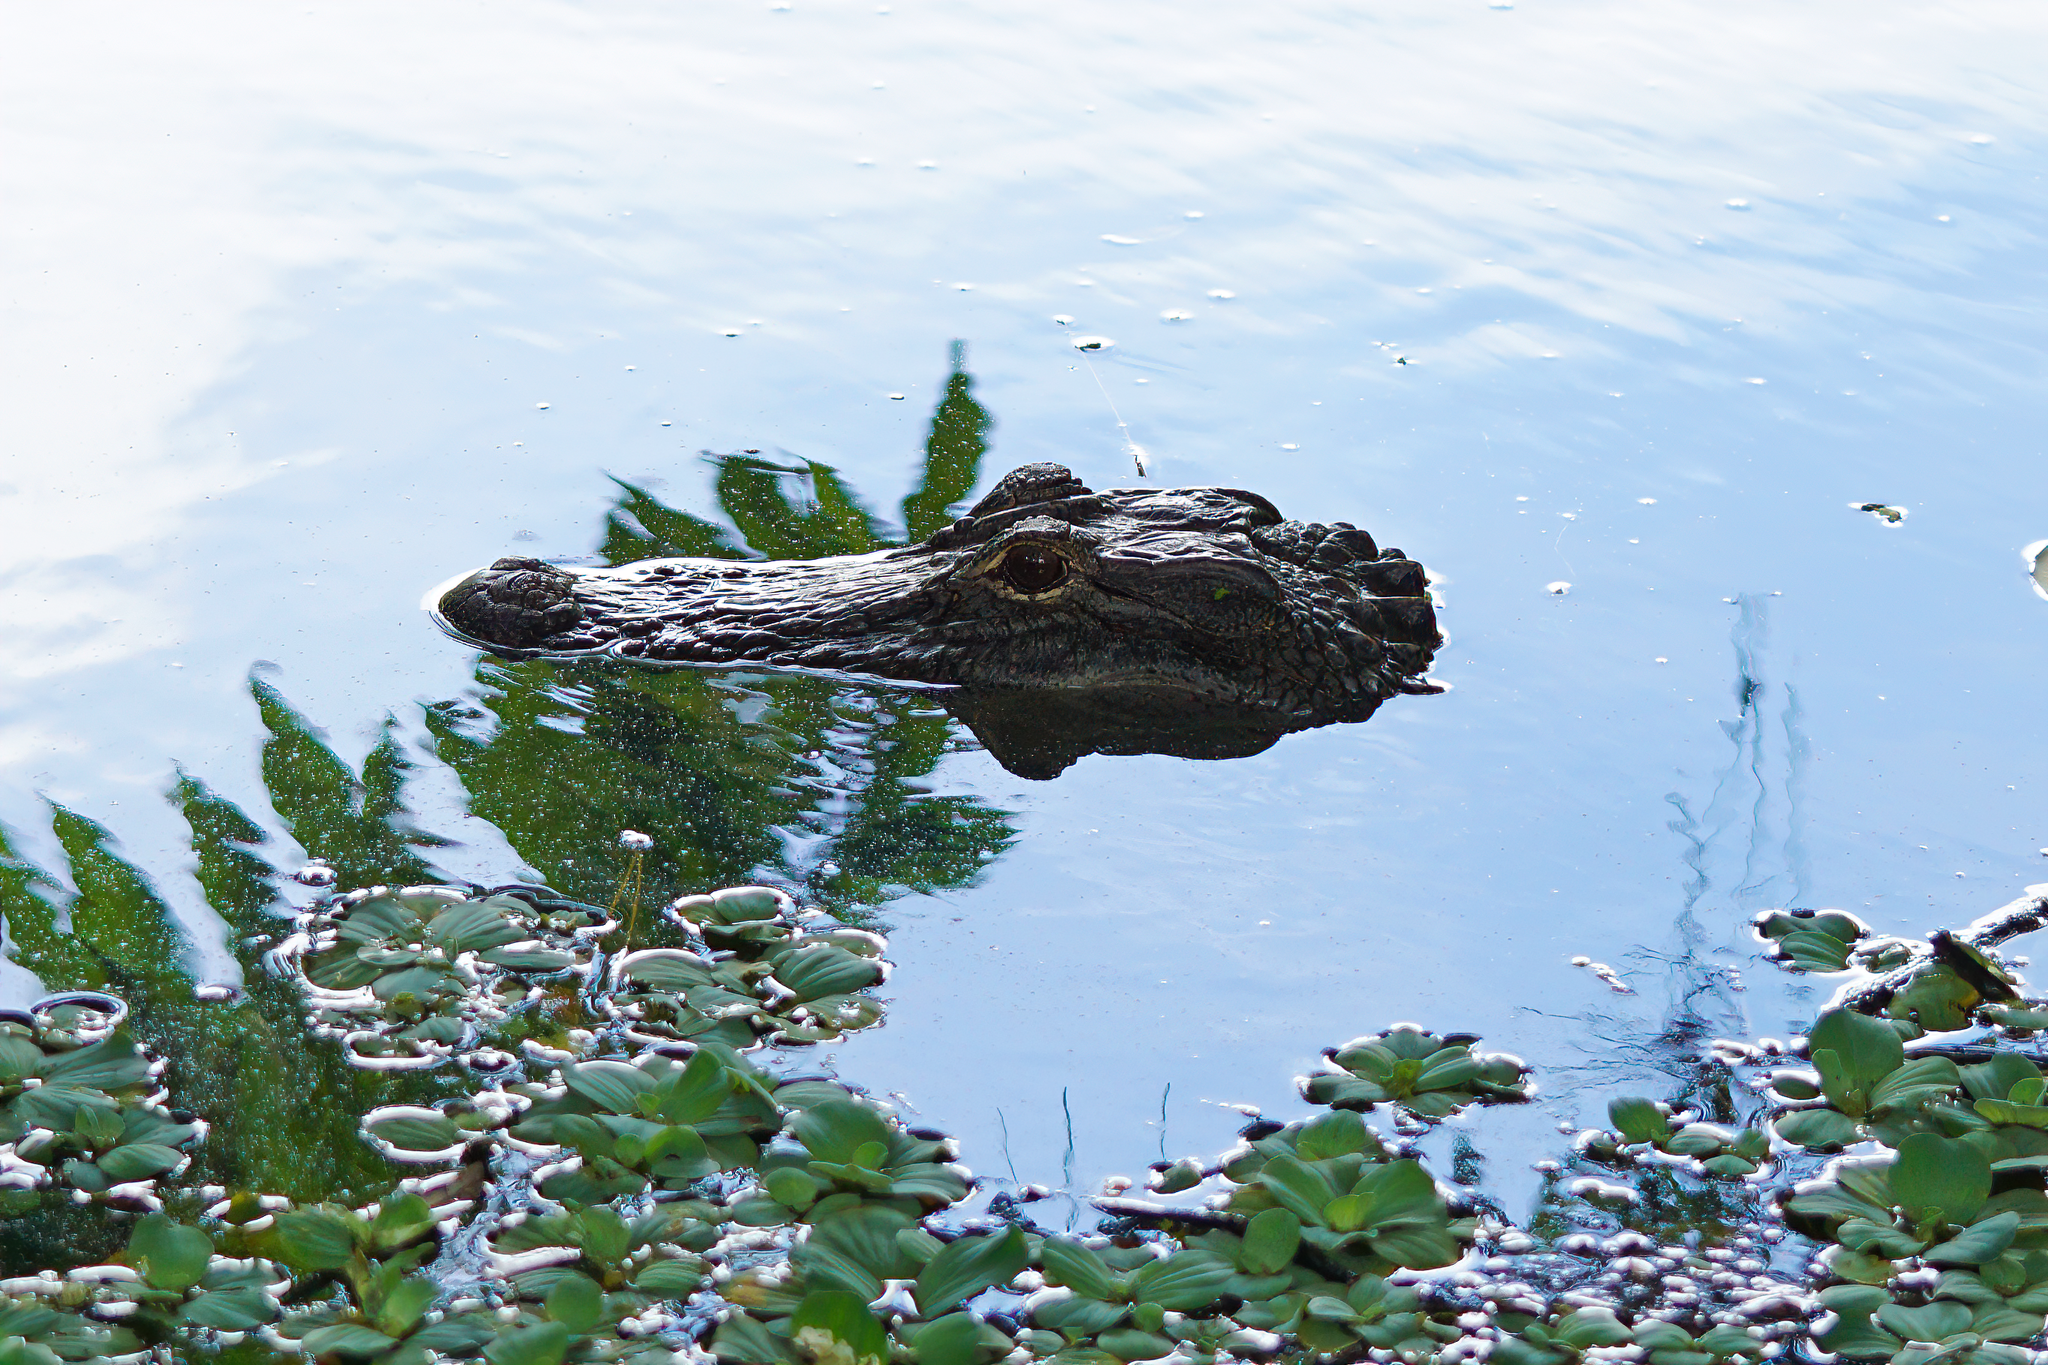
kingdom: Animalia
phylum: Chordata
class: Crocodylia
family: Alligatoridae
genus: Alligator
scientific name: Alligator mississippiensis
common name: American alligator
